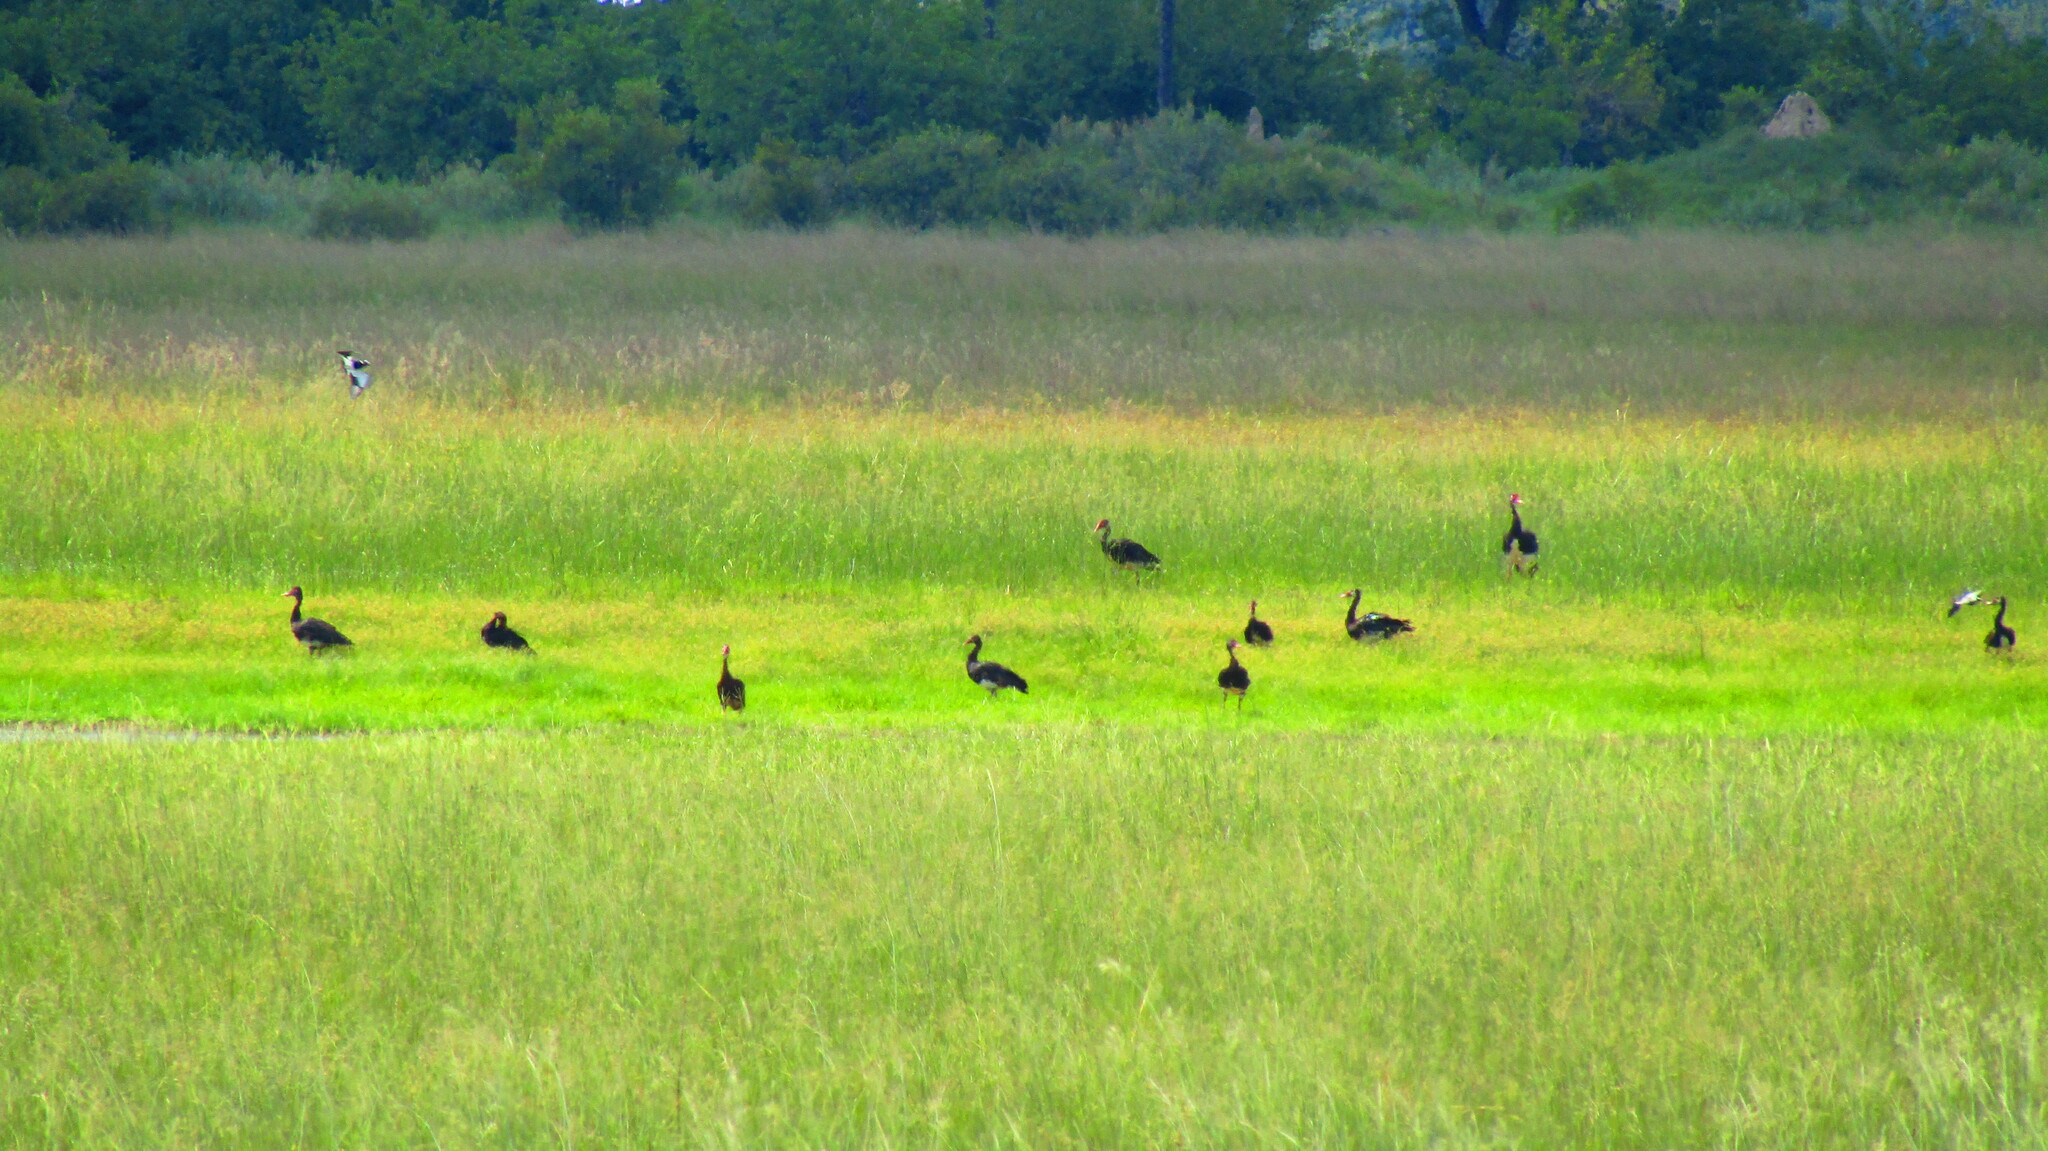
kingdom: Animalia
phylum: Chordata
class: Aves
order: Anseriformes
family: Anatidae
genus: Plectropterus
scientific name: Plectropterus gambensis
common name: Spur-winged goose
